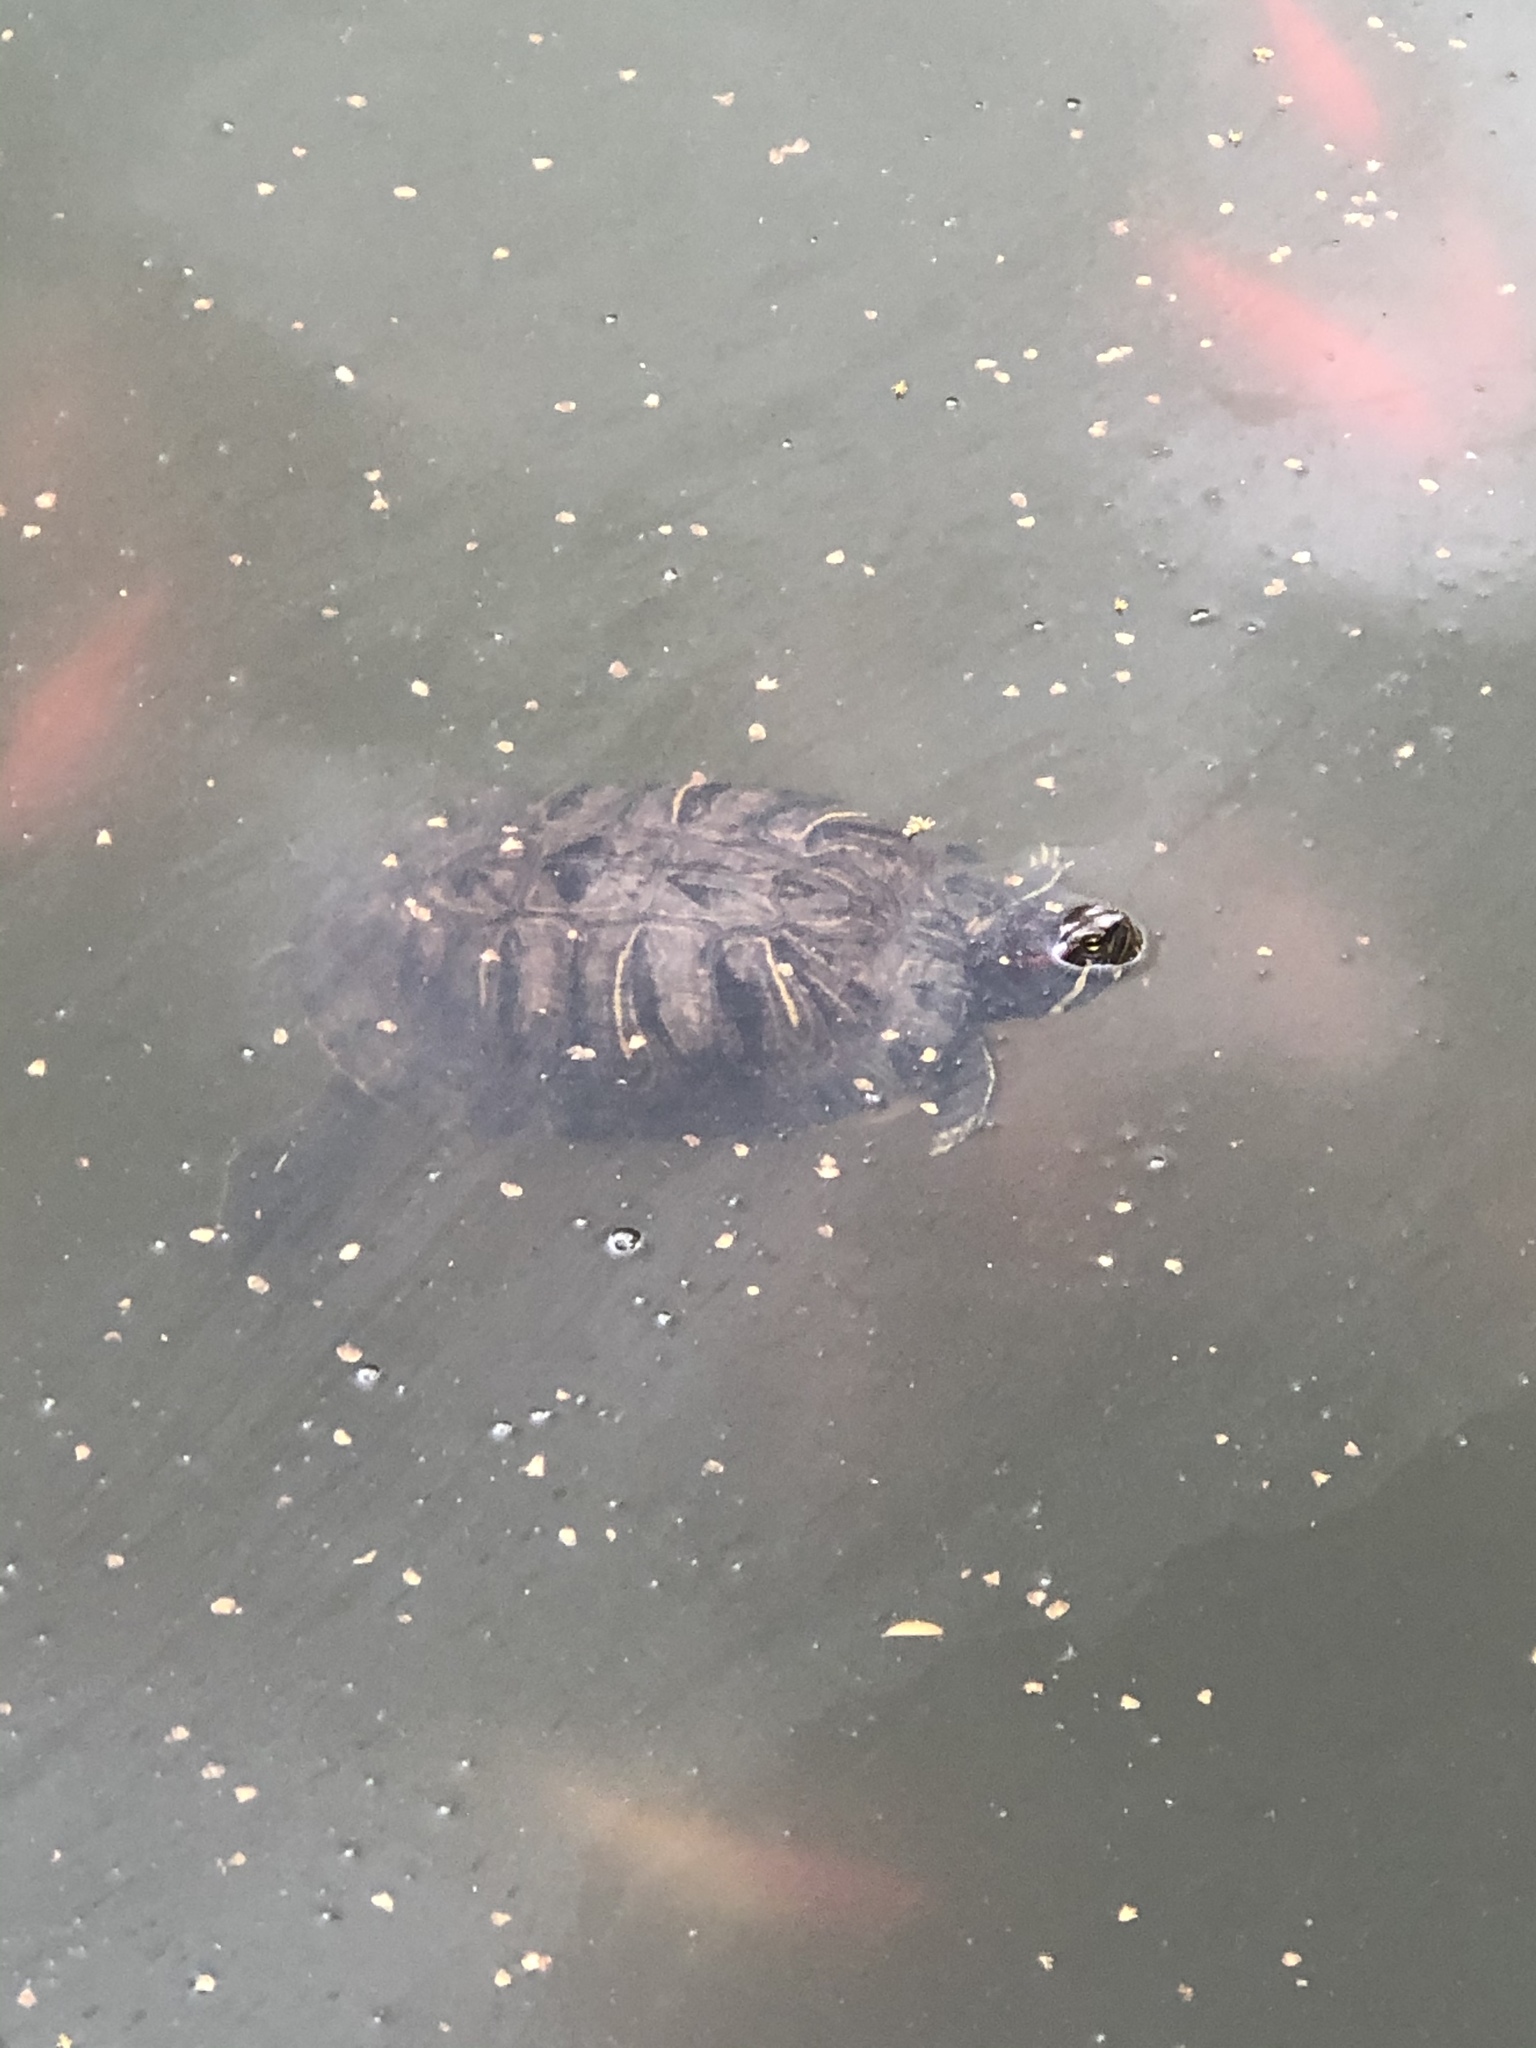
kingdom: Animalia
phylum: Chordata
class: Testudines
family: Emydidae
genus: Trachemys
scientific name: Trachemys scripta
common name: Slider
